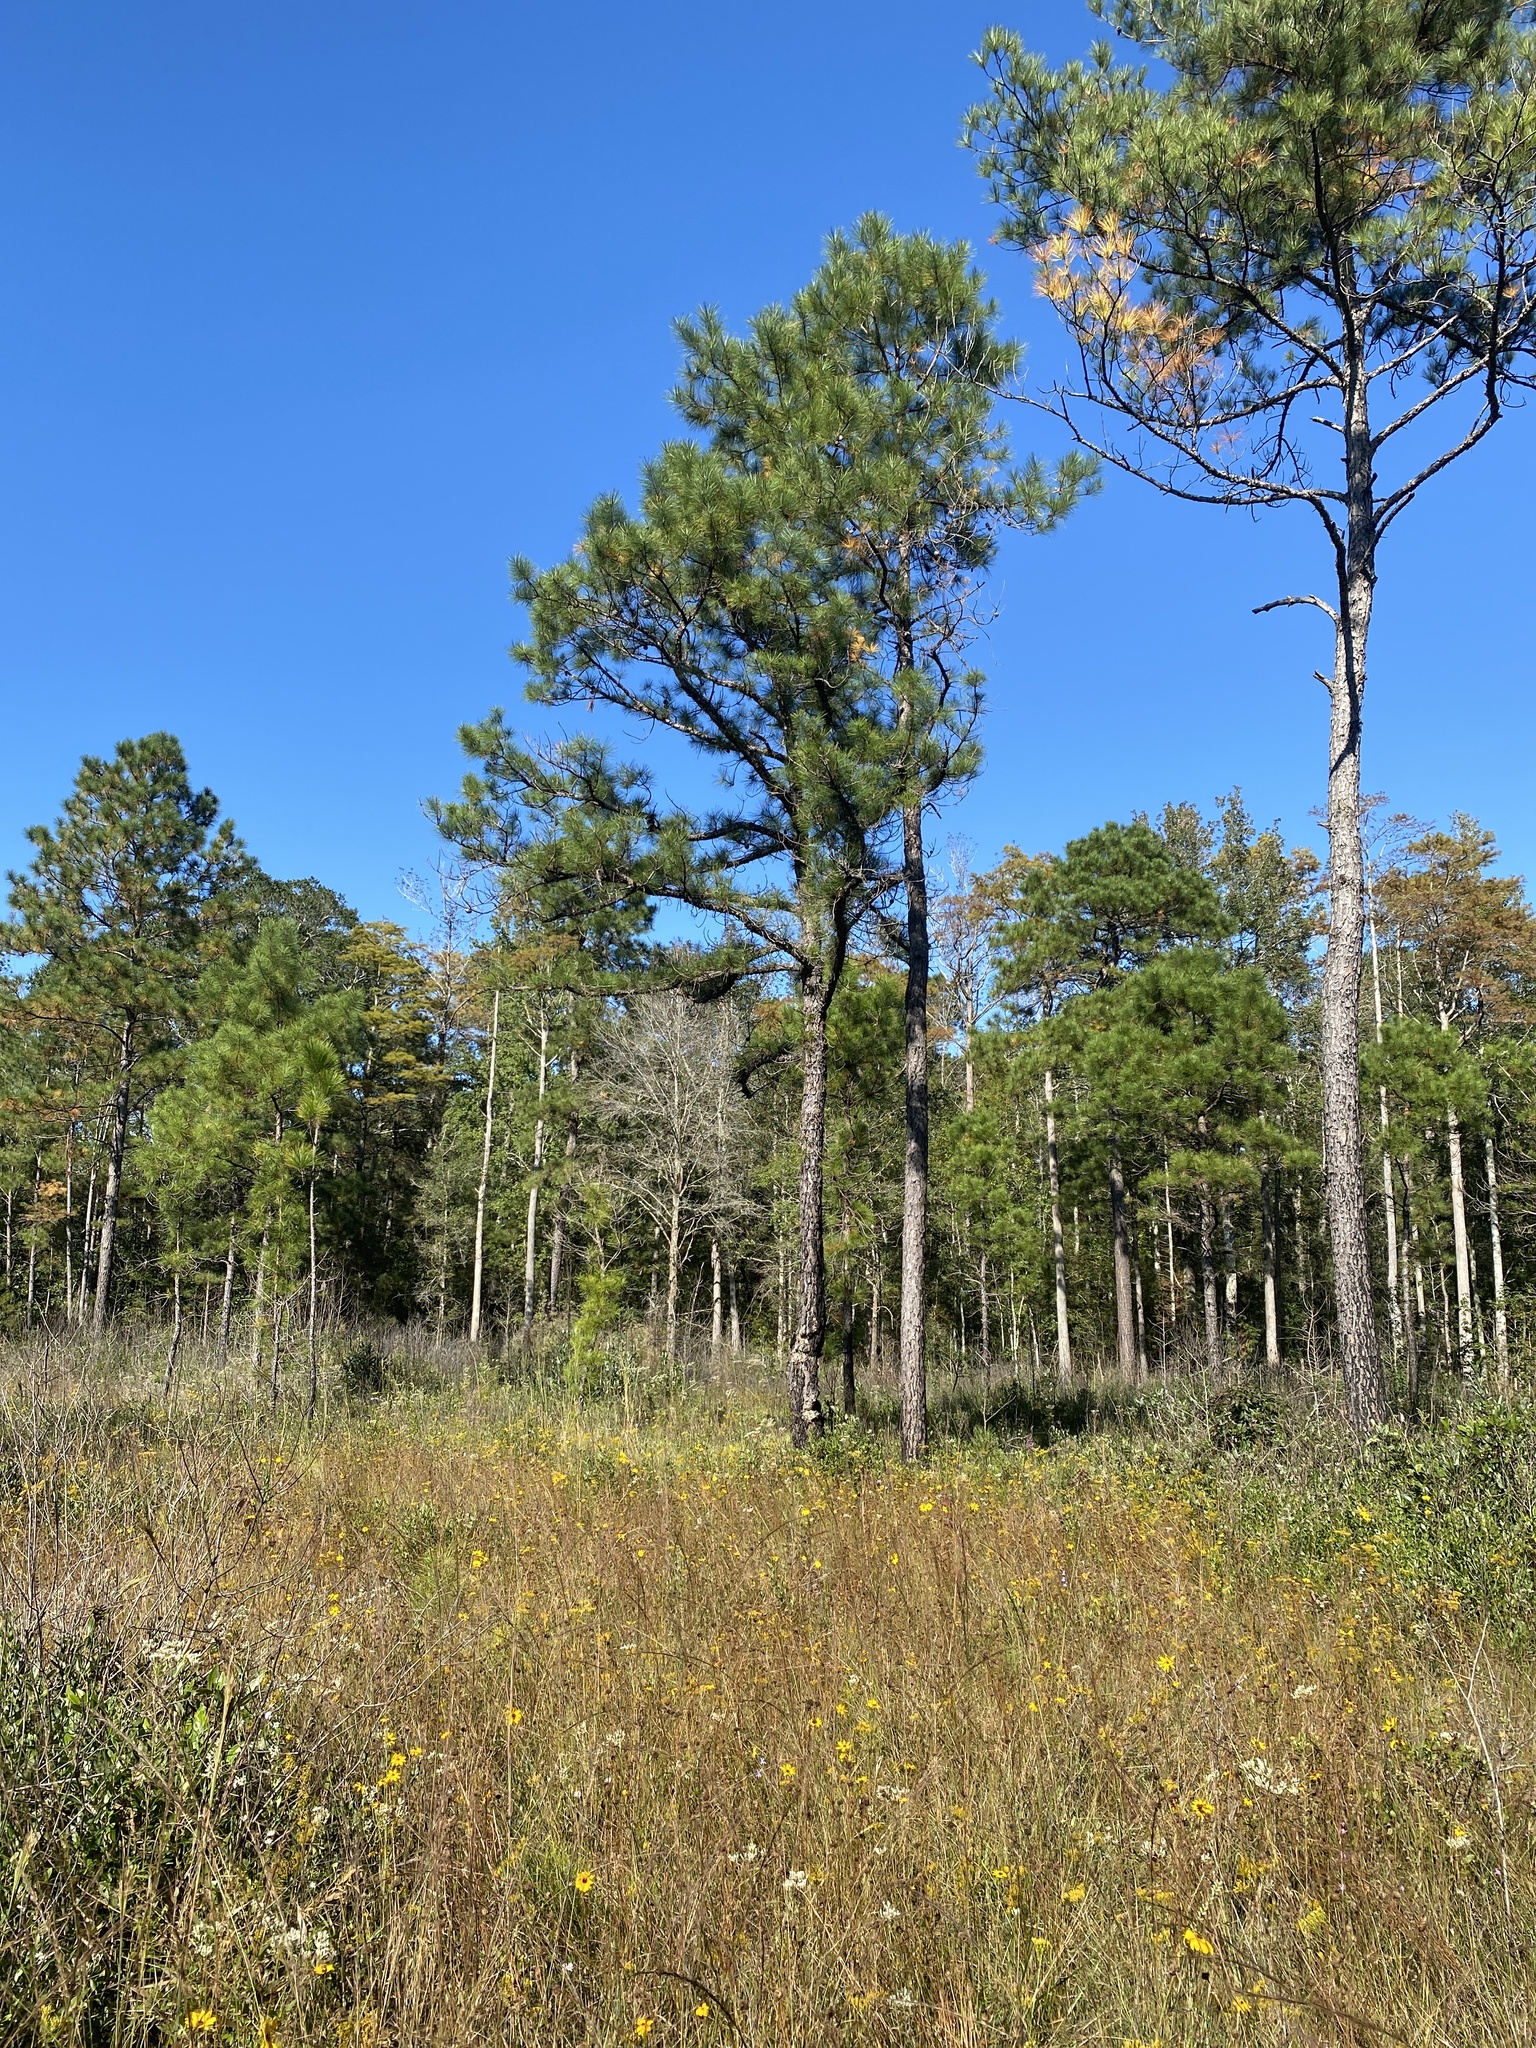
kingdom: Plantae
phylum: Tracheophyta
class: Pinopsida
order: Pinales
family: Pinaceae
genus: Pinus
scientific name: Pinus serotina
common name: Marsh pine
